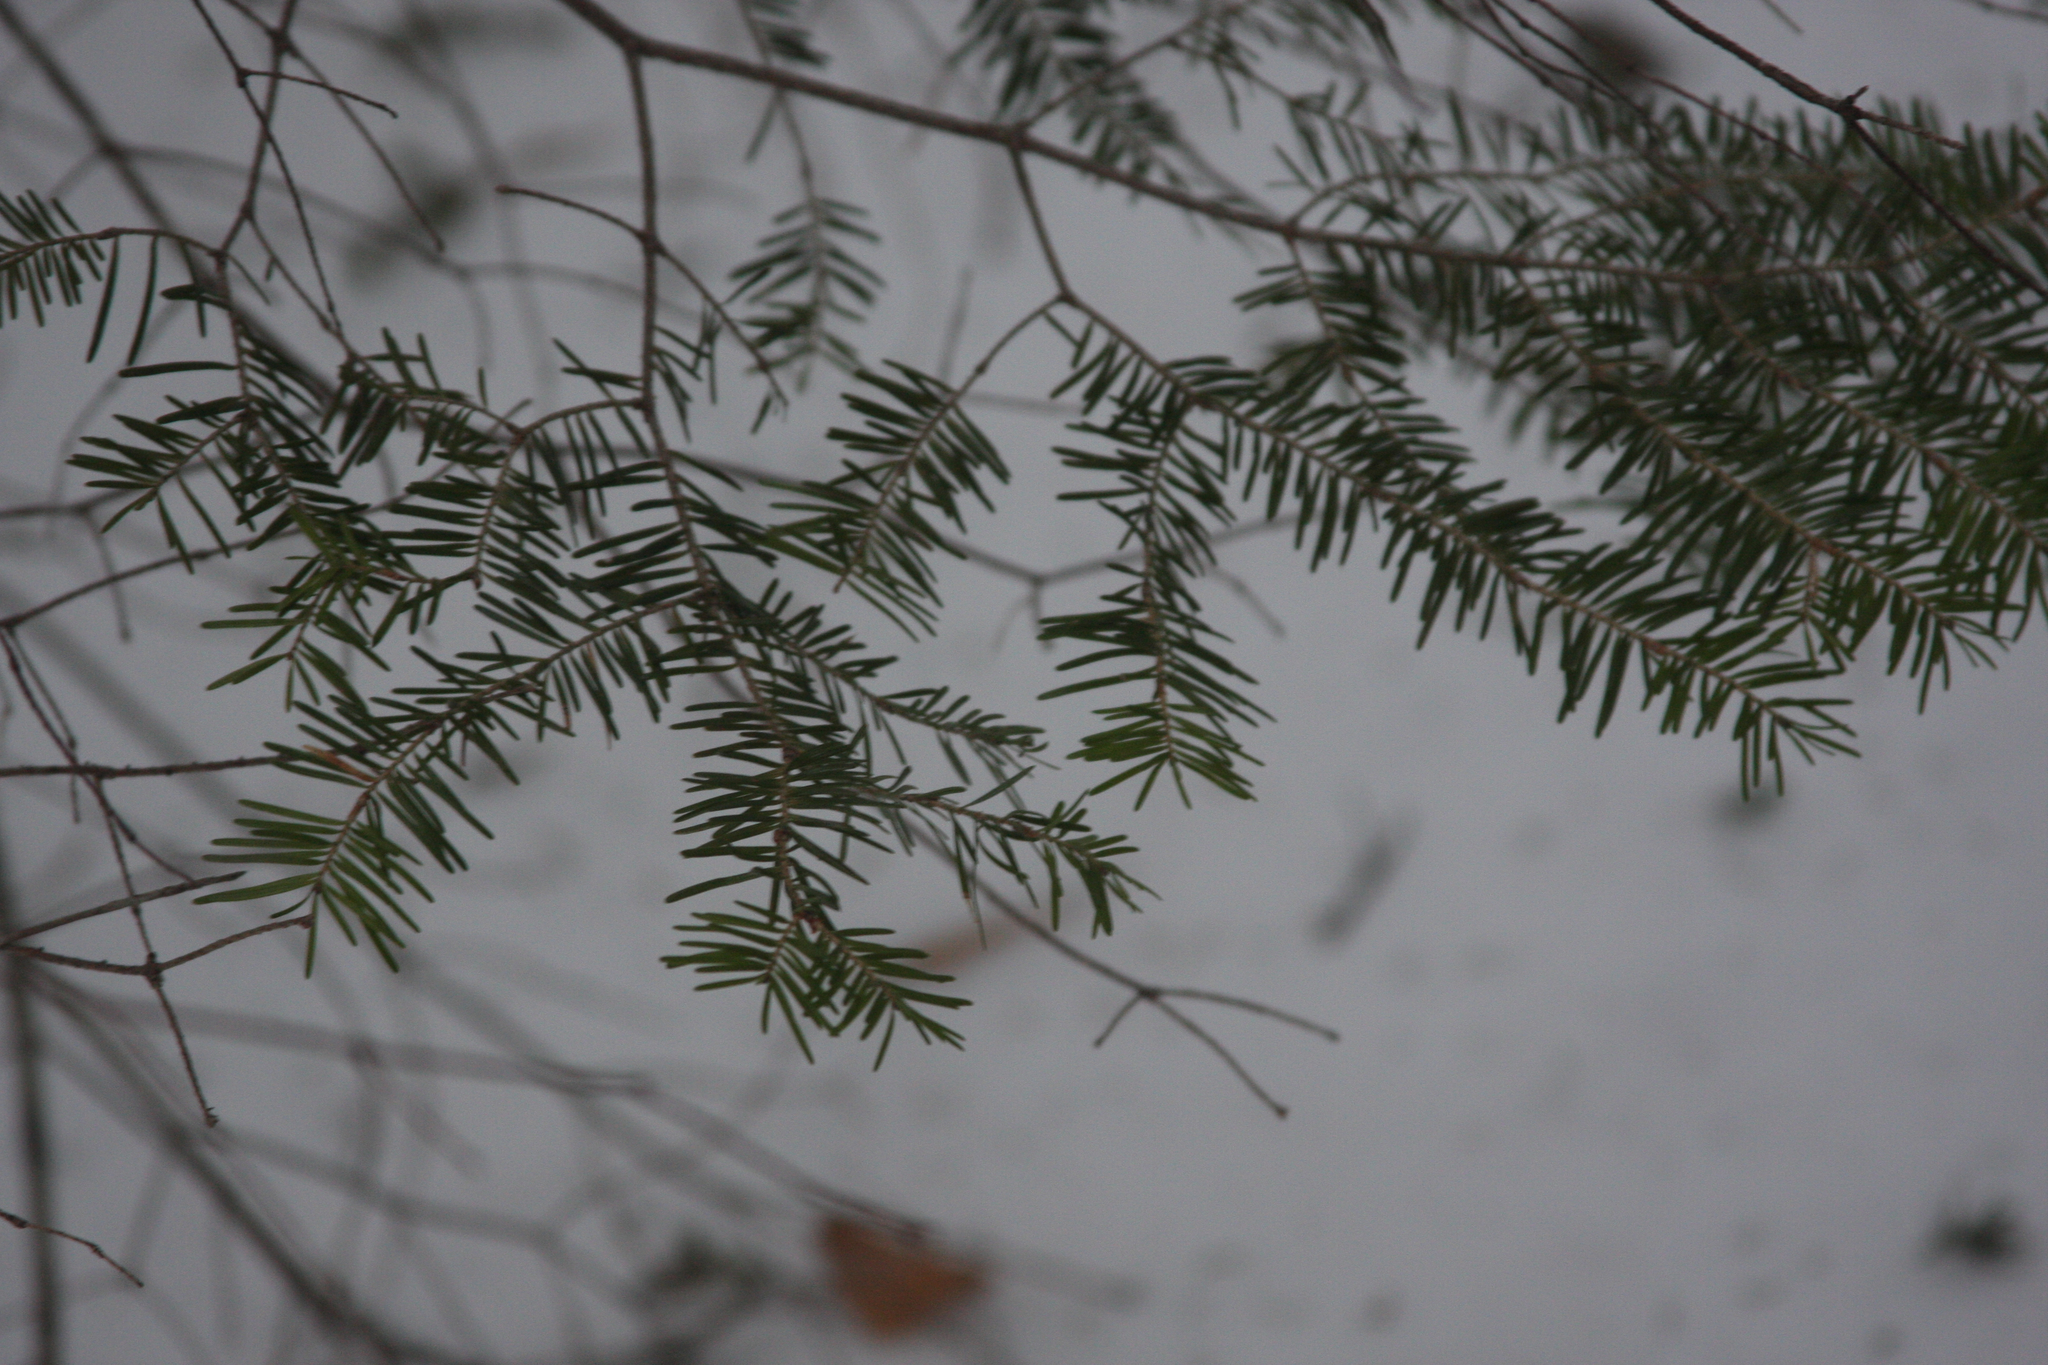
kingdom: Plantae
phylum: Tracheophyta
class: Pinopsida
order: Pinales
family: Pinaceae
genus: Abies
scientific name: Abies balsamea
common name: Balsam fir
